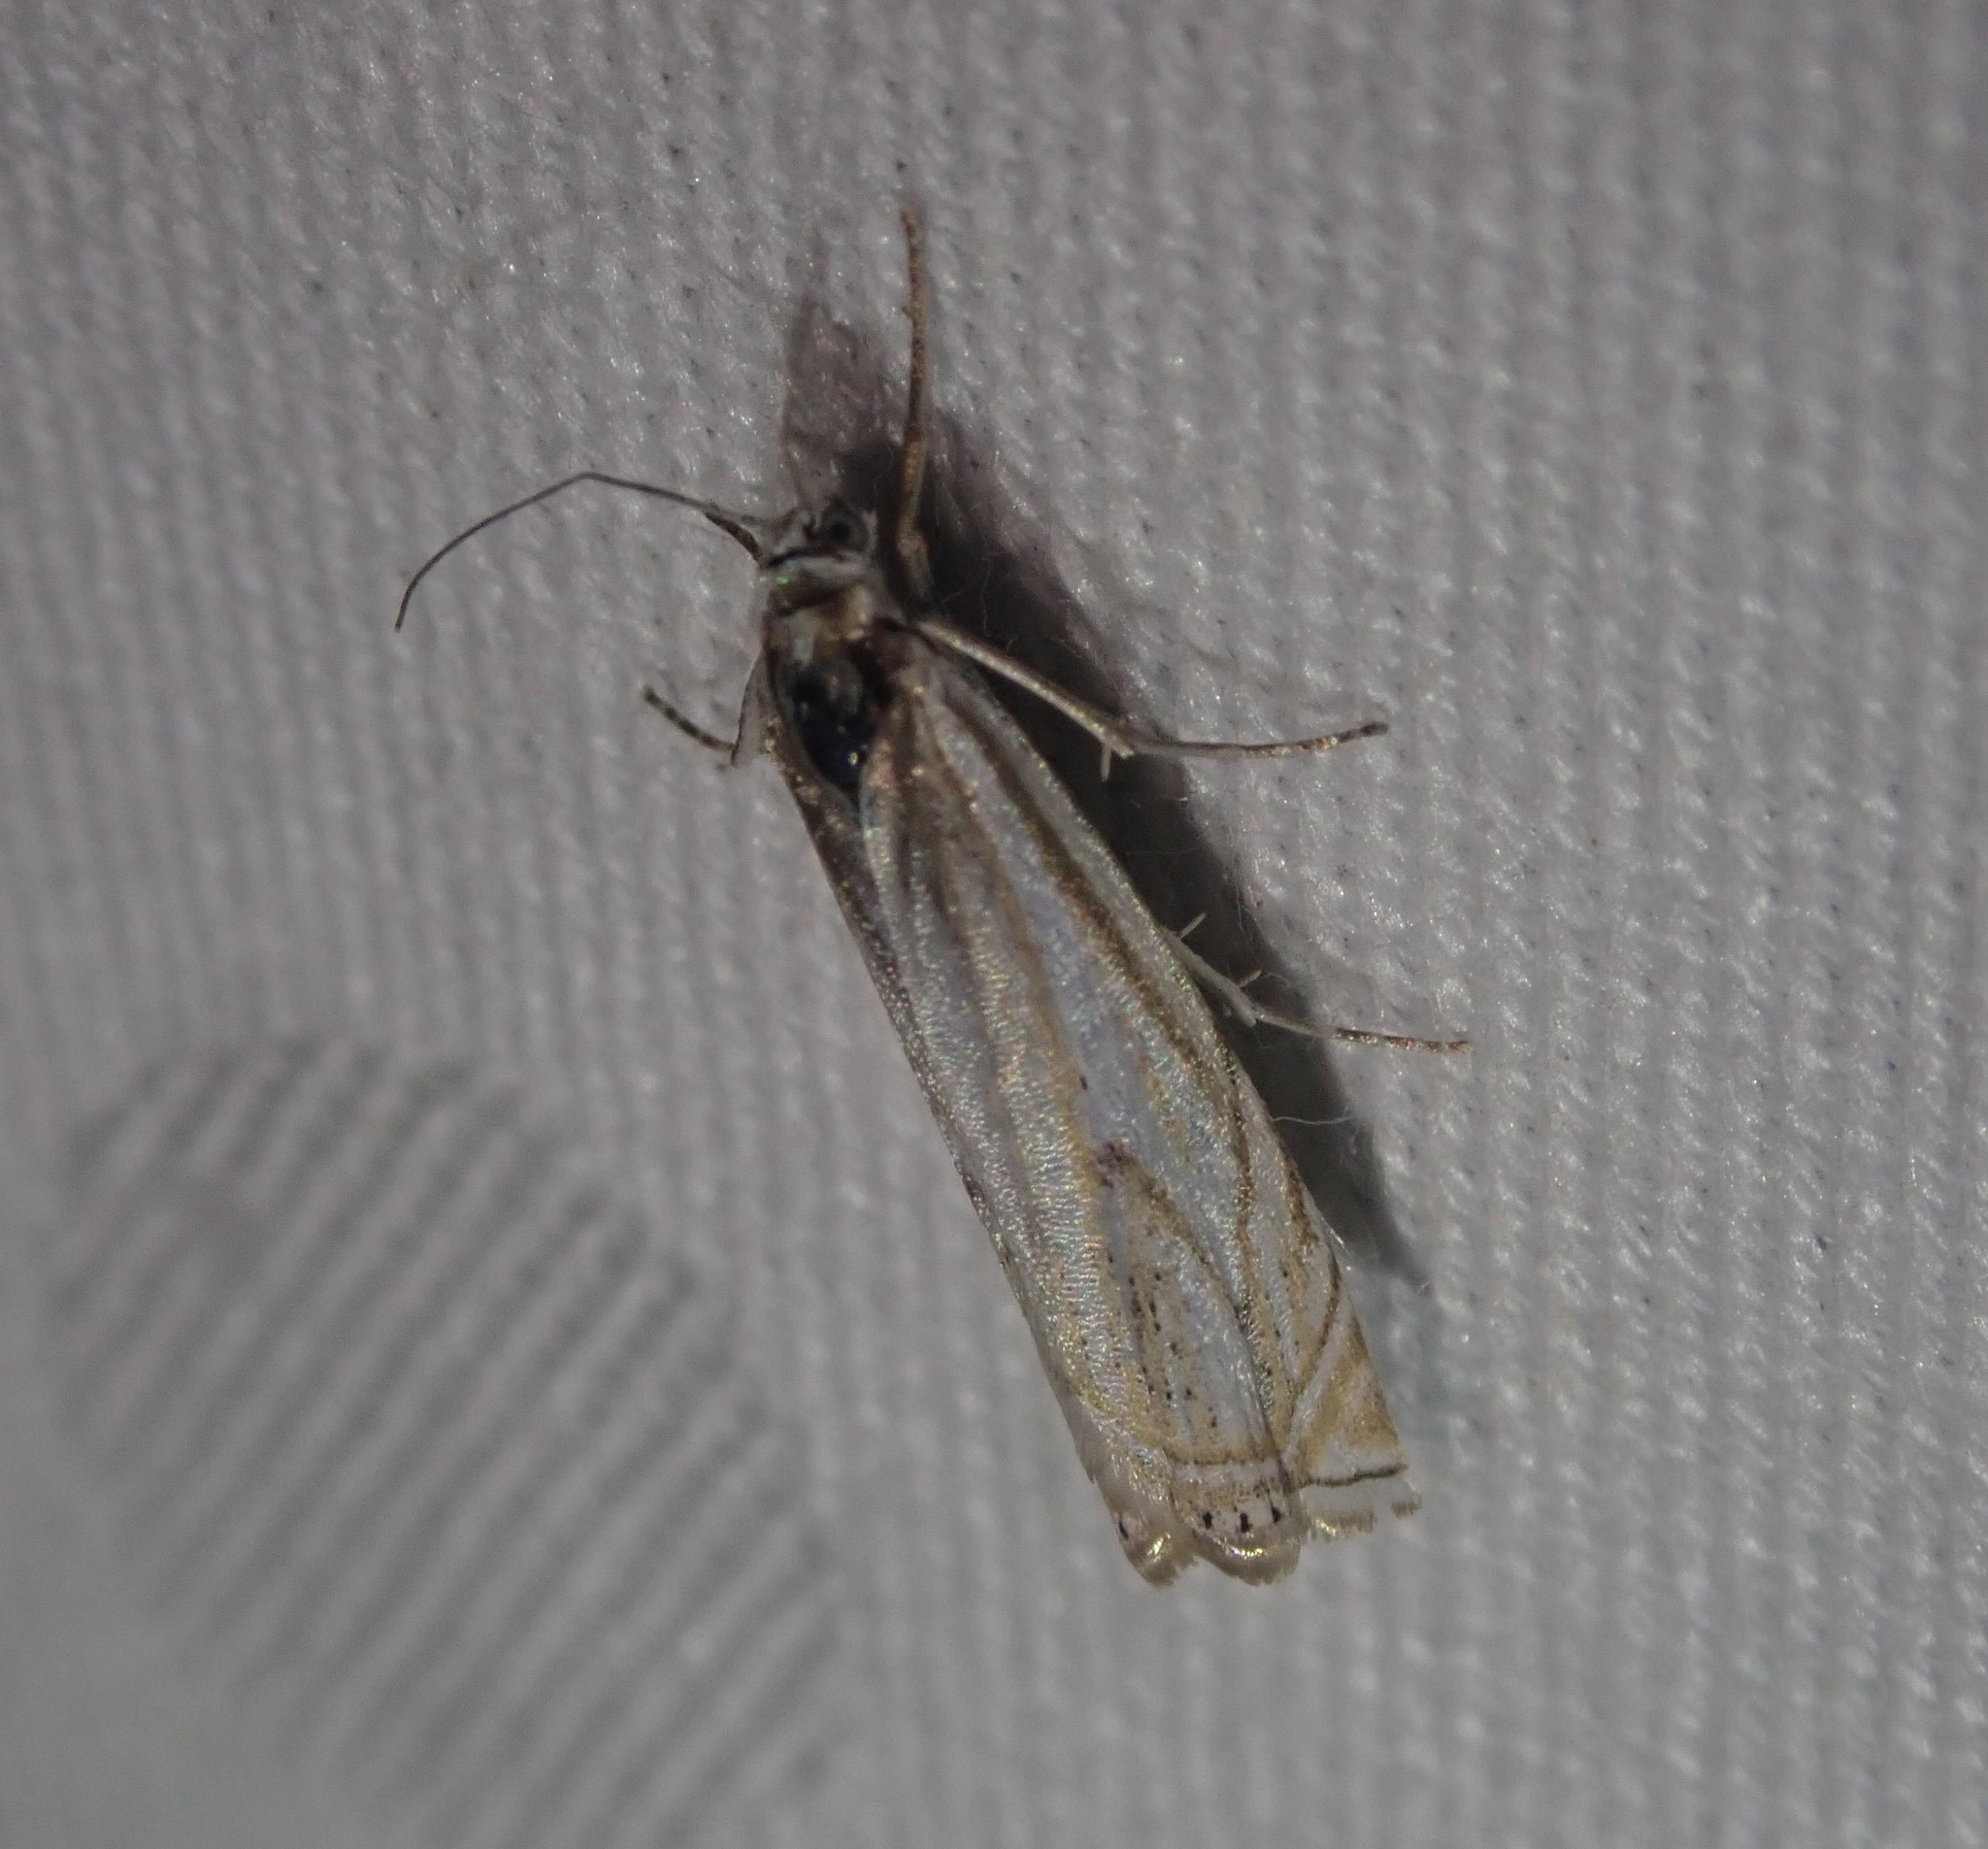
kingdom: Animalia
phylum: Arthropoda
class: Insecta
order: Lepidoptera
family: Crambidae
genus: Crambus
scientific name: Crambus nemorella
